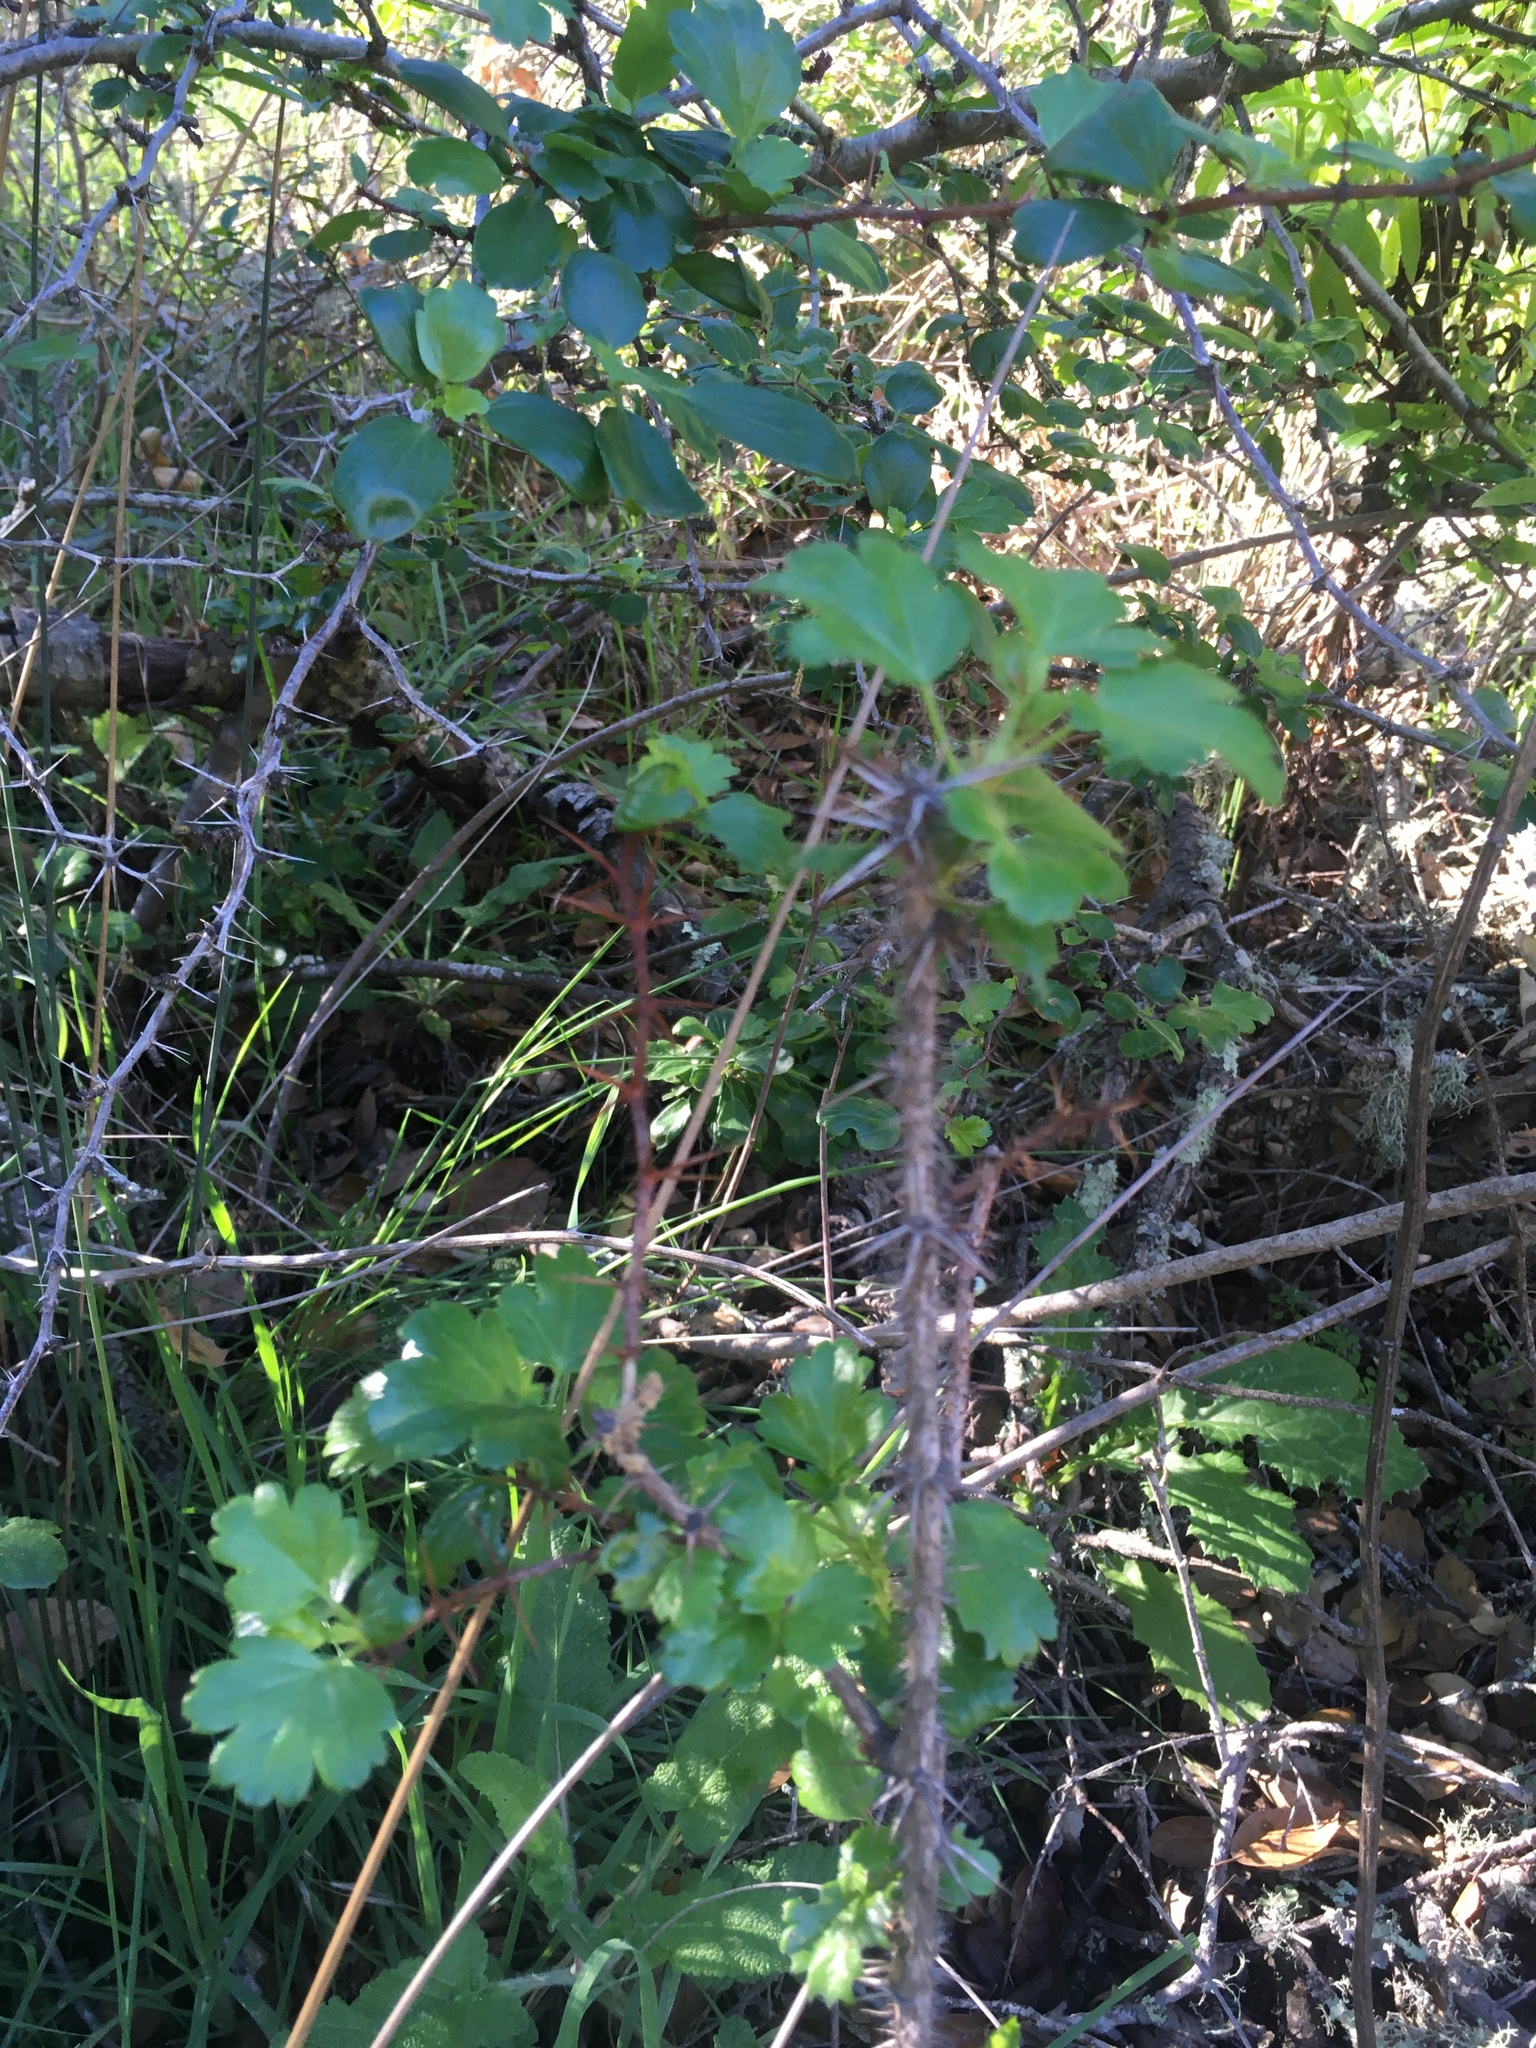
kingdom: Plantae
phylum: Tracheophyta
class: Magnoliopsida
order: Saxifragales
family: Grossulariaceae
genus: Ribes
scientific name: Ribes speciosum
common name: Fuchsia-flower gooseberry
